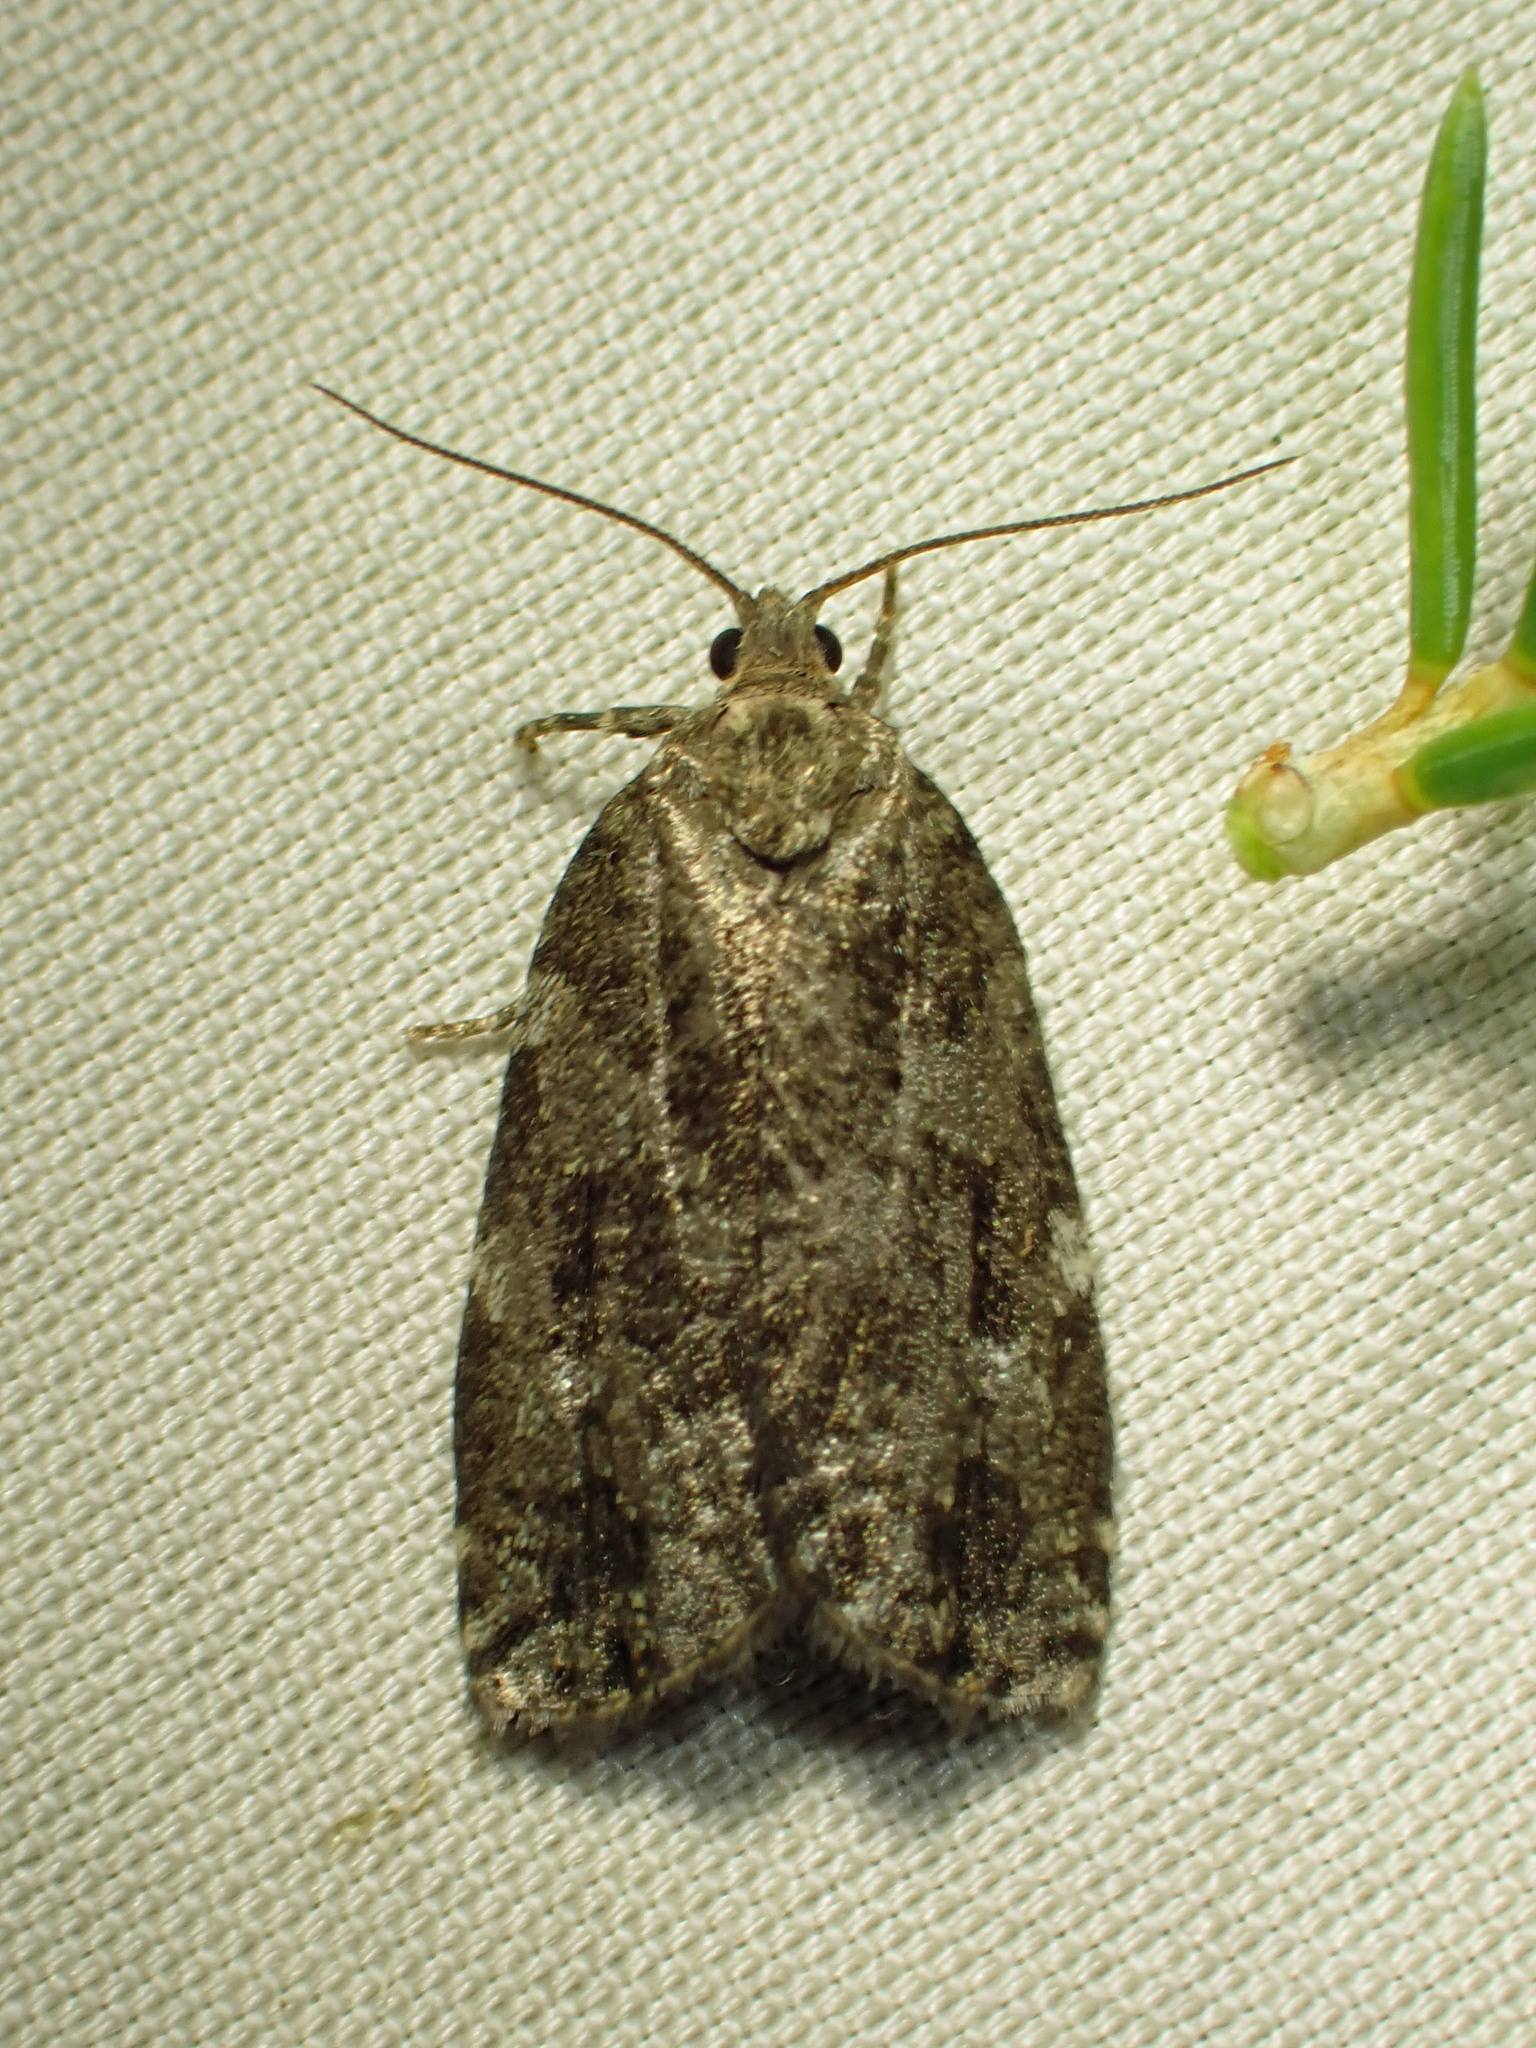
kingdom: Animalia
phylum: Arthropoda
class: Insecta
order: Lepidoptera
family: Tortricidae
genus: Choristoneura
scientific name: Choristoneura fumiferana
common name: Spruce budworm
